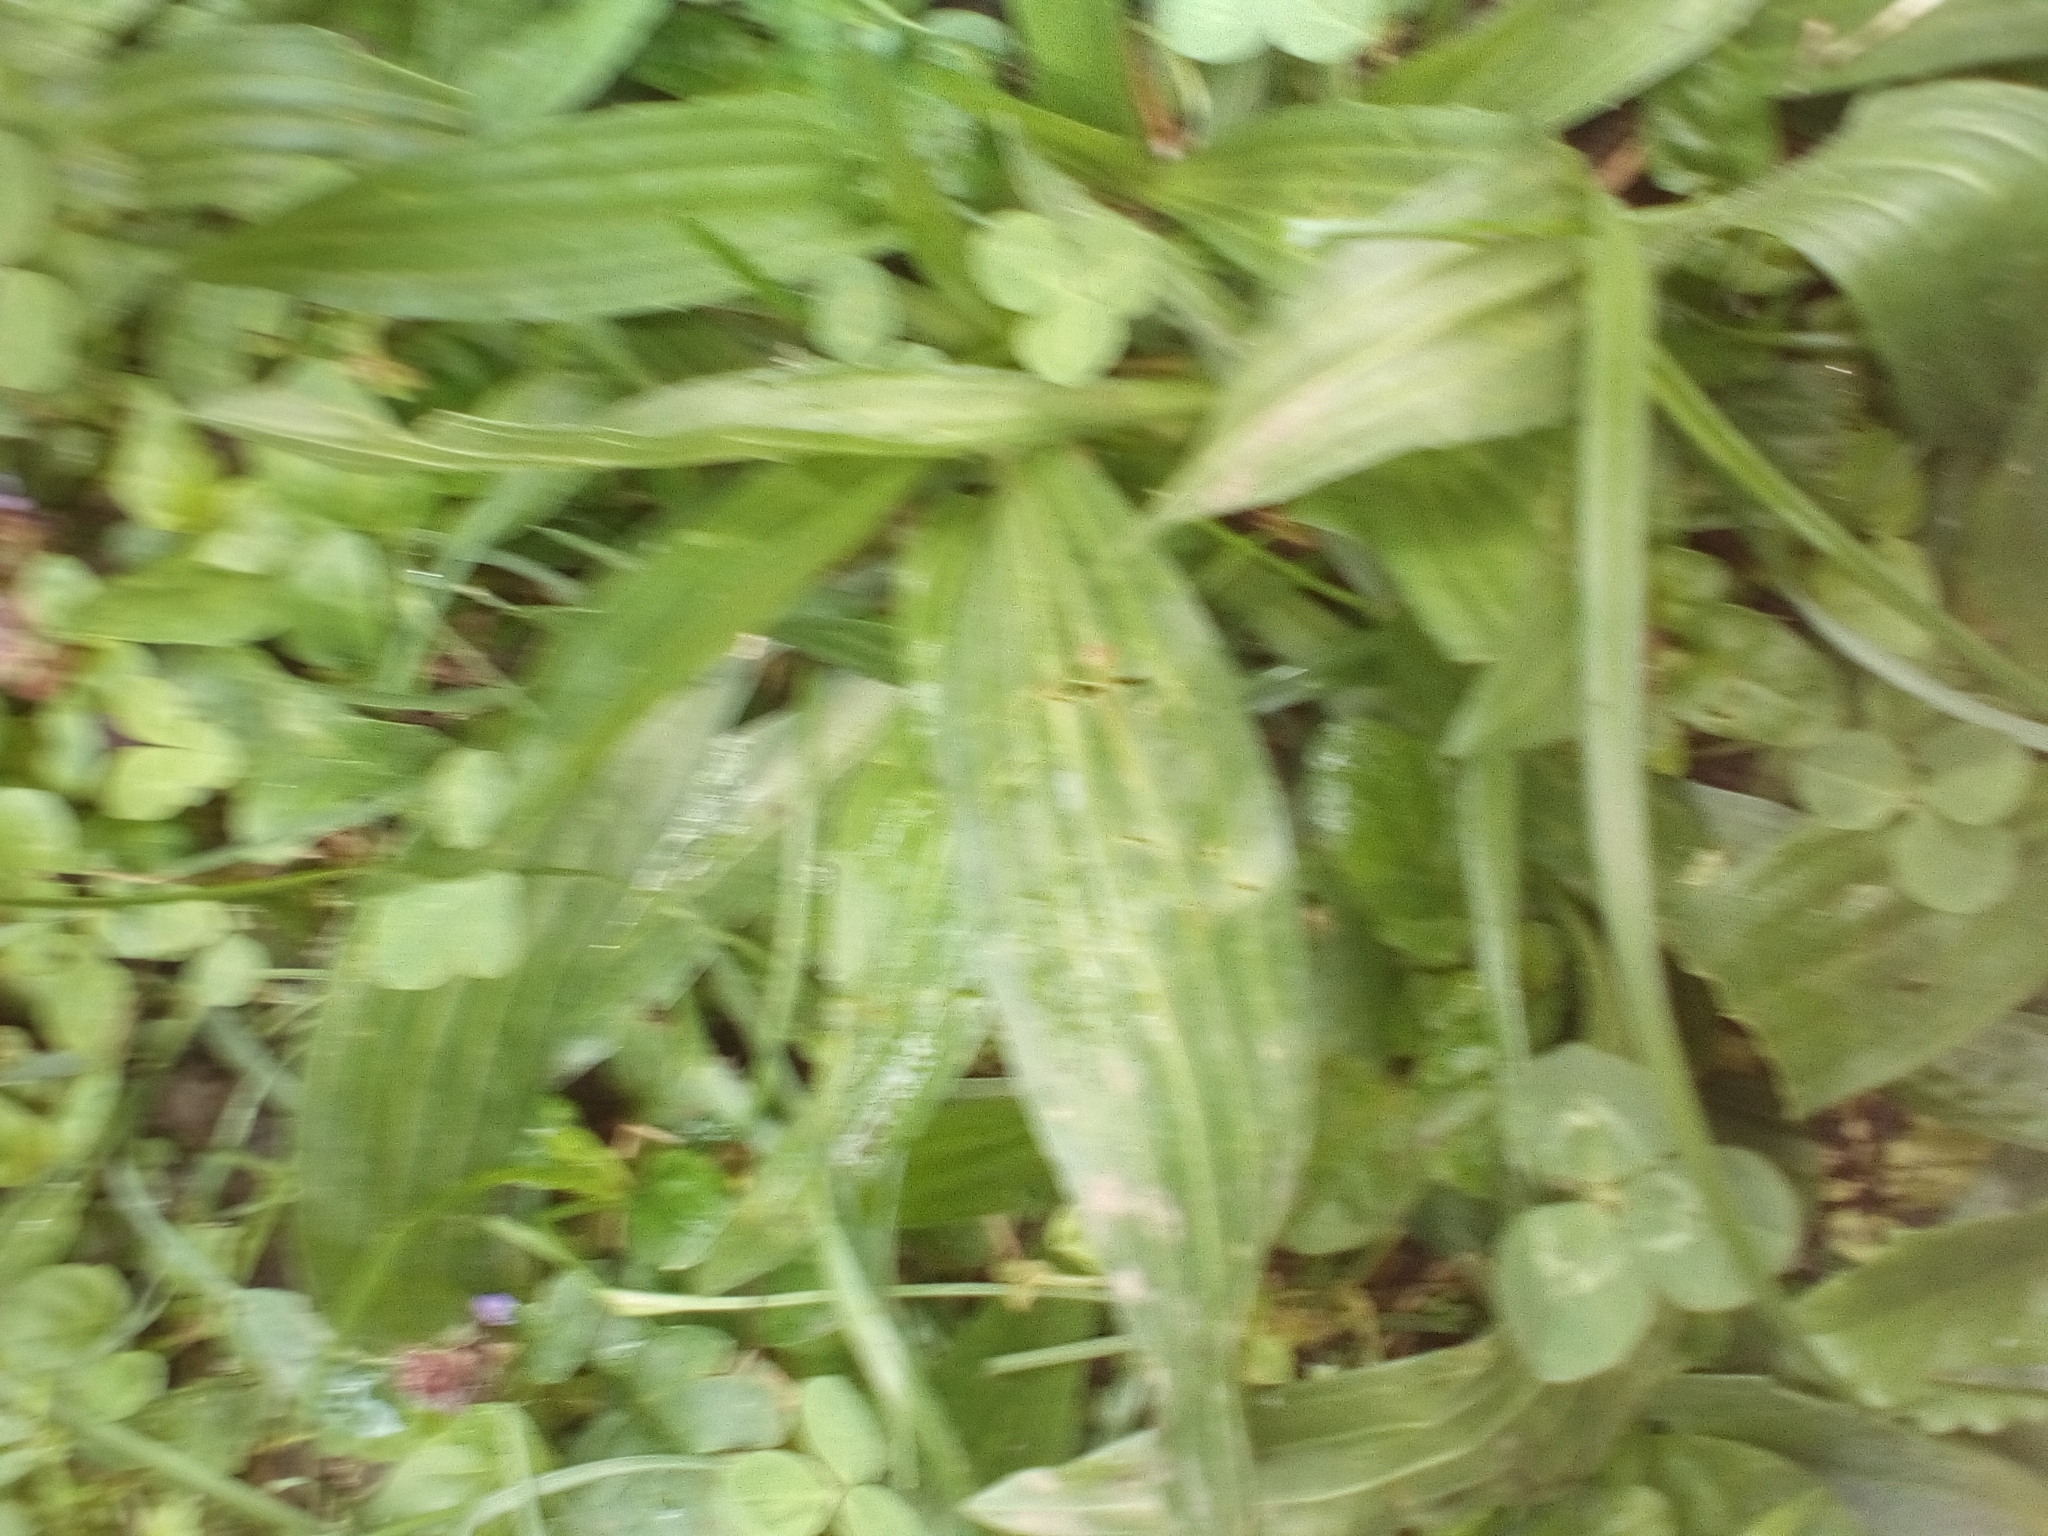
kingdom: Plantae
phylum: Tracheophyta
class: Magnoliopsida
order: Lamiales
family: Plantaginaceae
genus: Plantago
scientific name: Plantago lanceolata
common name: Ribwort plantain
